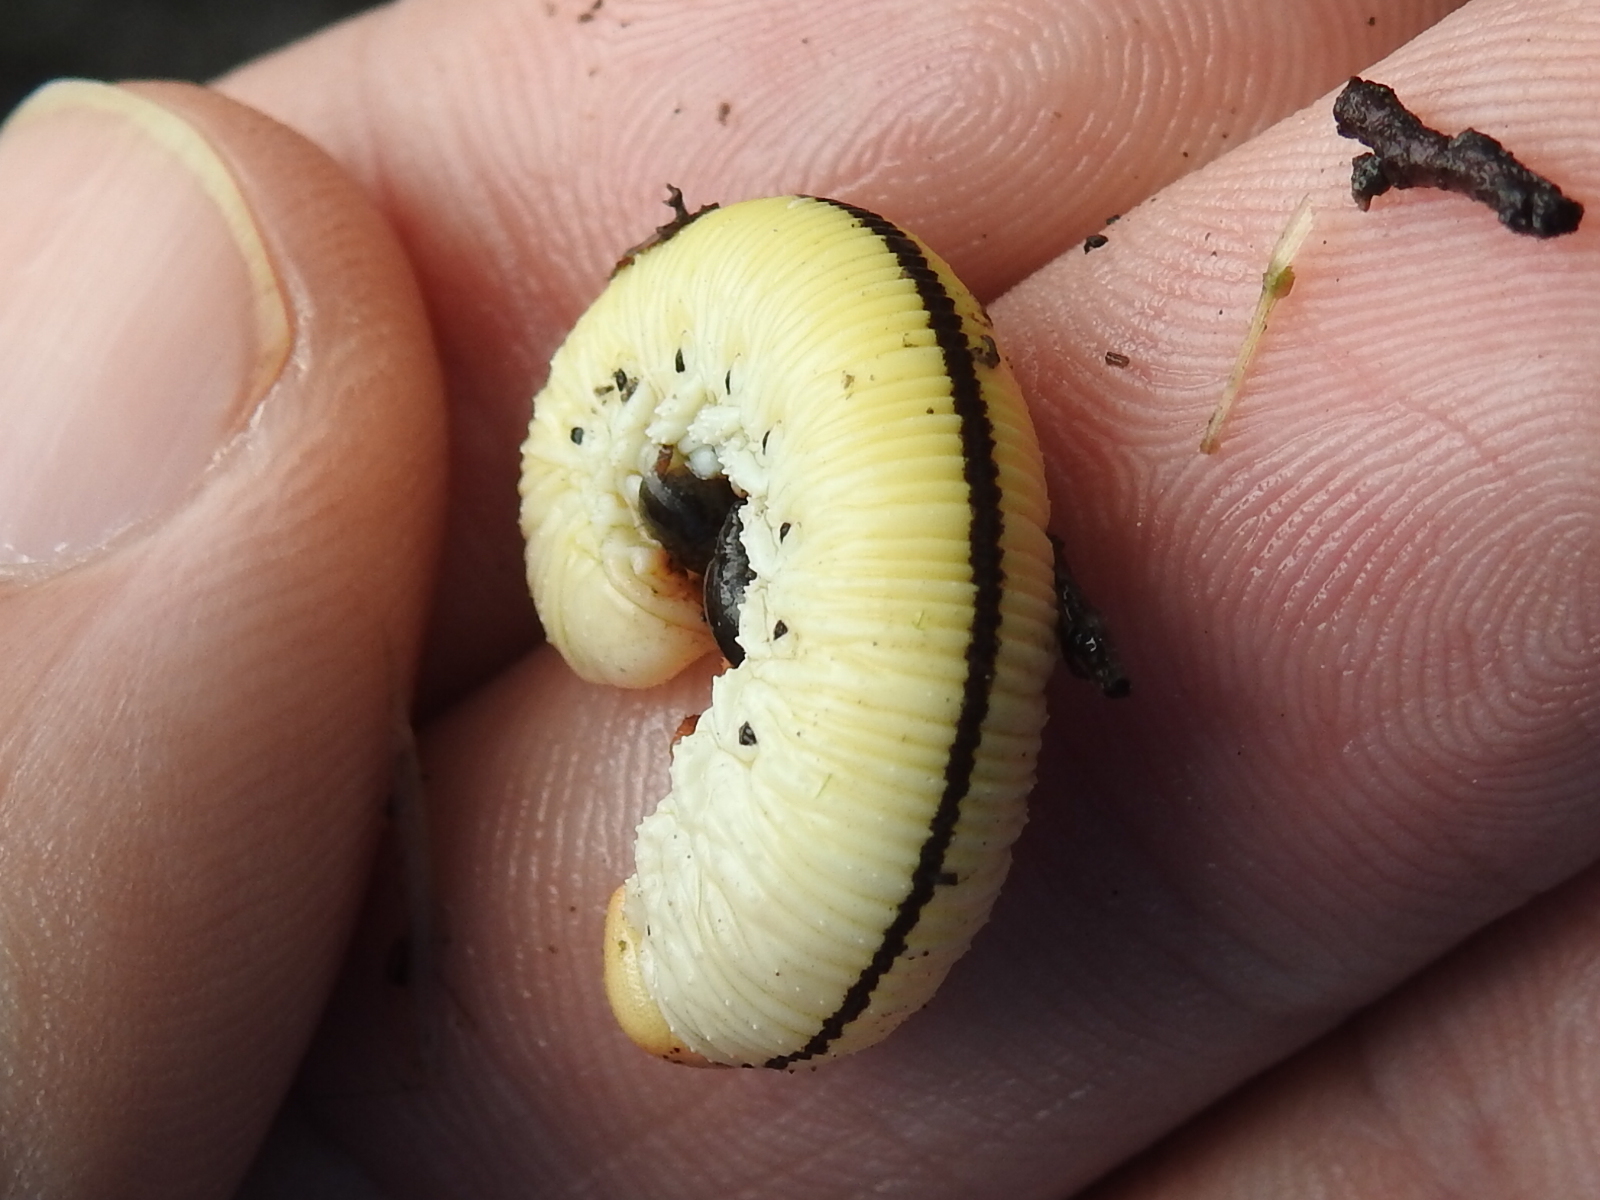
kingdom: Animalia
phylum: Arthropoda
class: Insecta
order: Hymenoptera
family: Cimbicidae
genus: Cimbex
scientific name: Cimbex americana
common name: Elm sawfly
